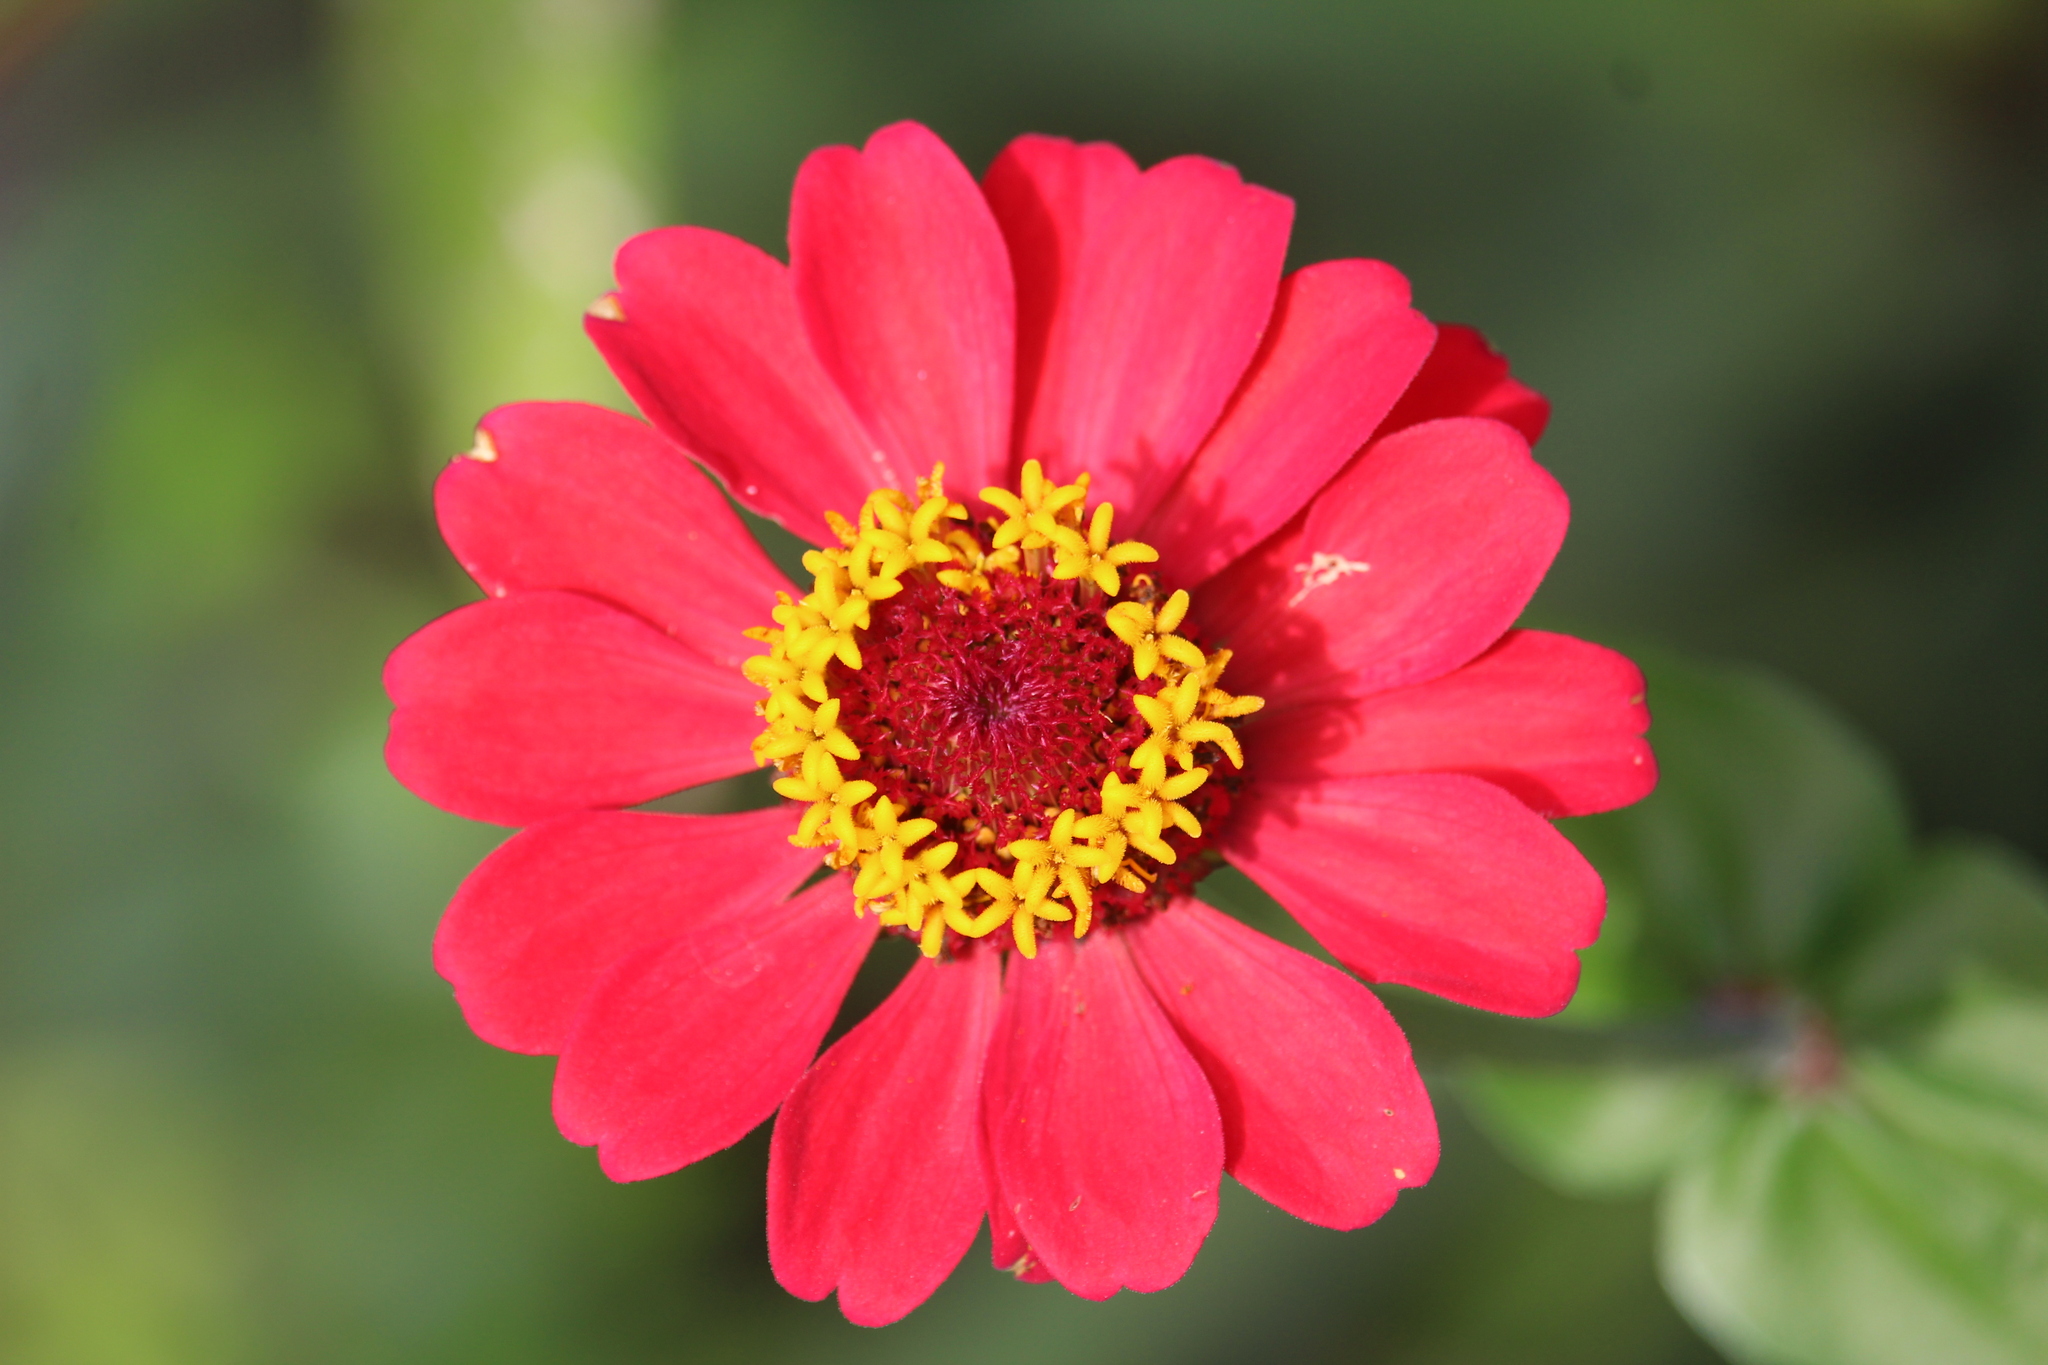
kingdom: Plantae
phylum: Tracheophyta
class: Magnoliopsida
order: Asterales
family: Asteraceae
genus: Zinnia
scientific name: Zinnia elegans
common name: Youth-and-age
